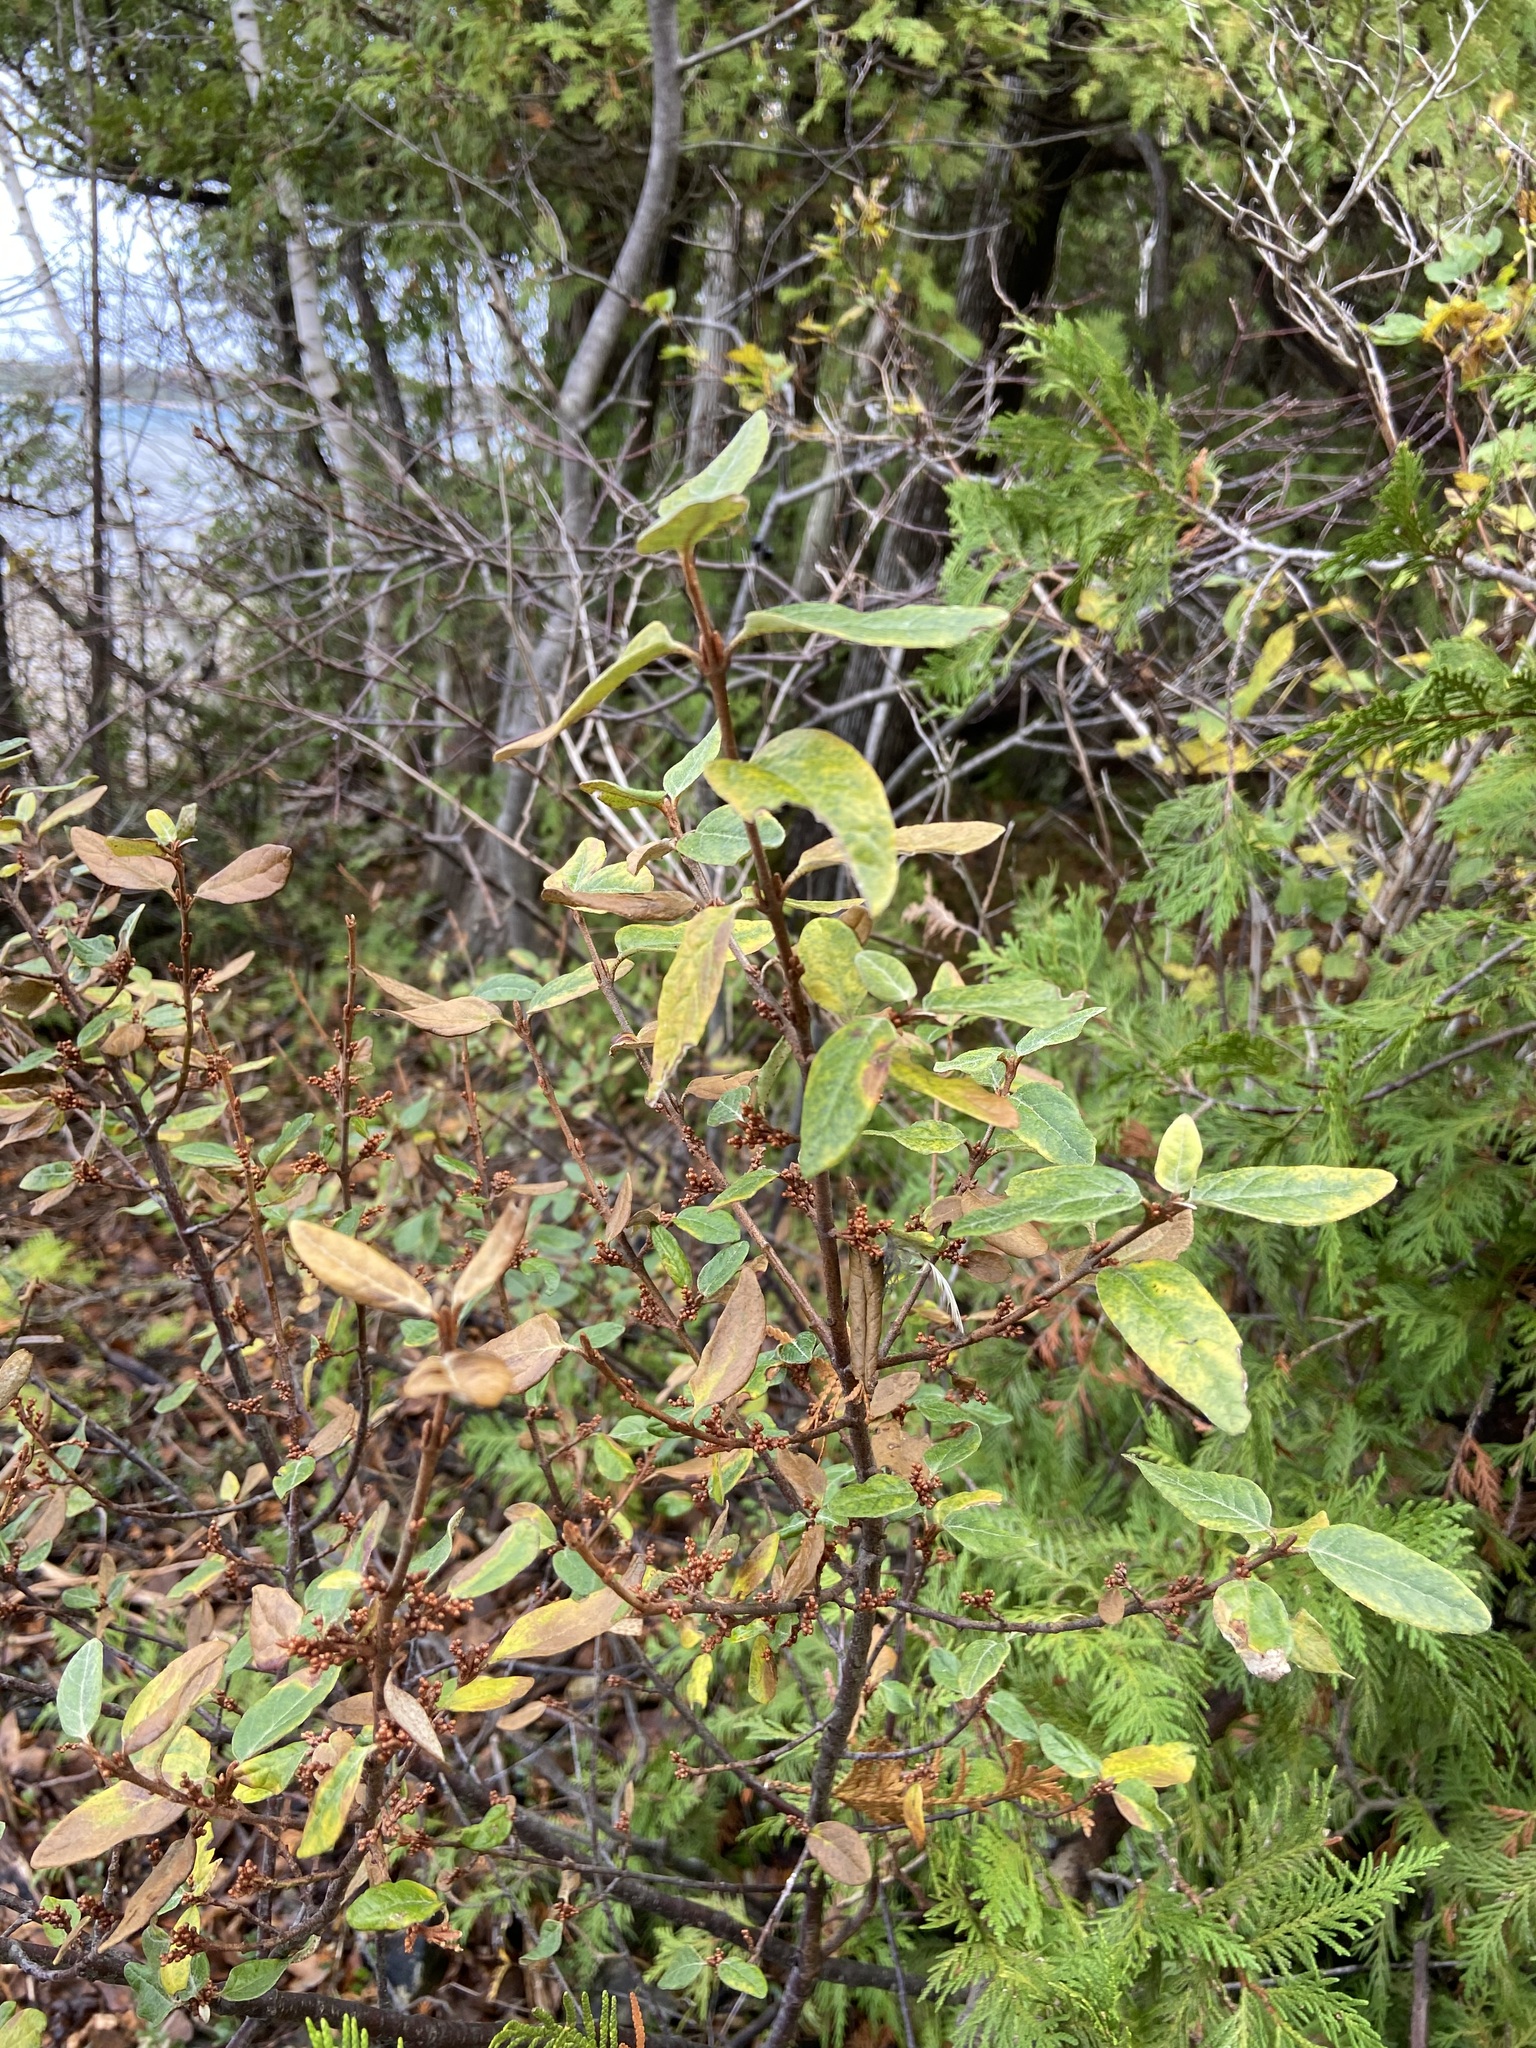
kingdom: Plantae
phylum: Tracheophyta
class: Magnoliopsida
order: Rosales
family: Elaeagnaceae
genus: Shepherdia
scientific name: Shepherdia canadensis
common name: Soapberry
